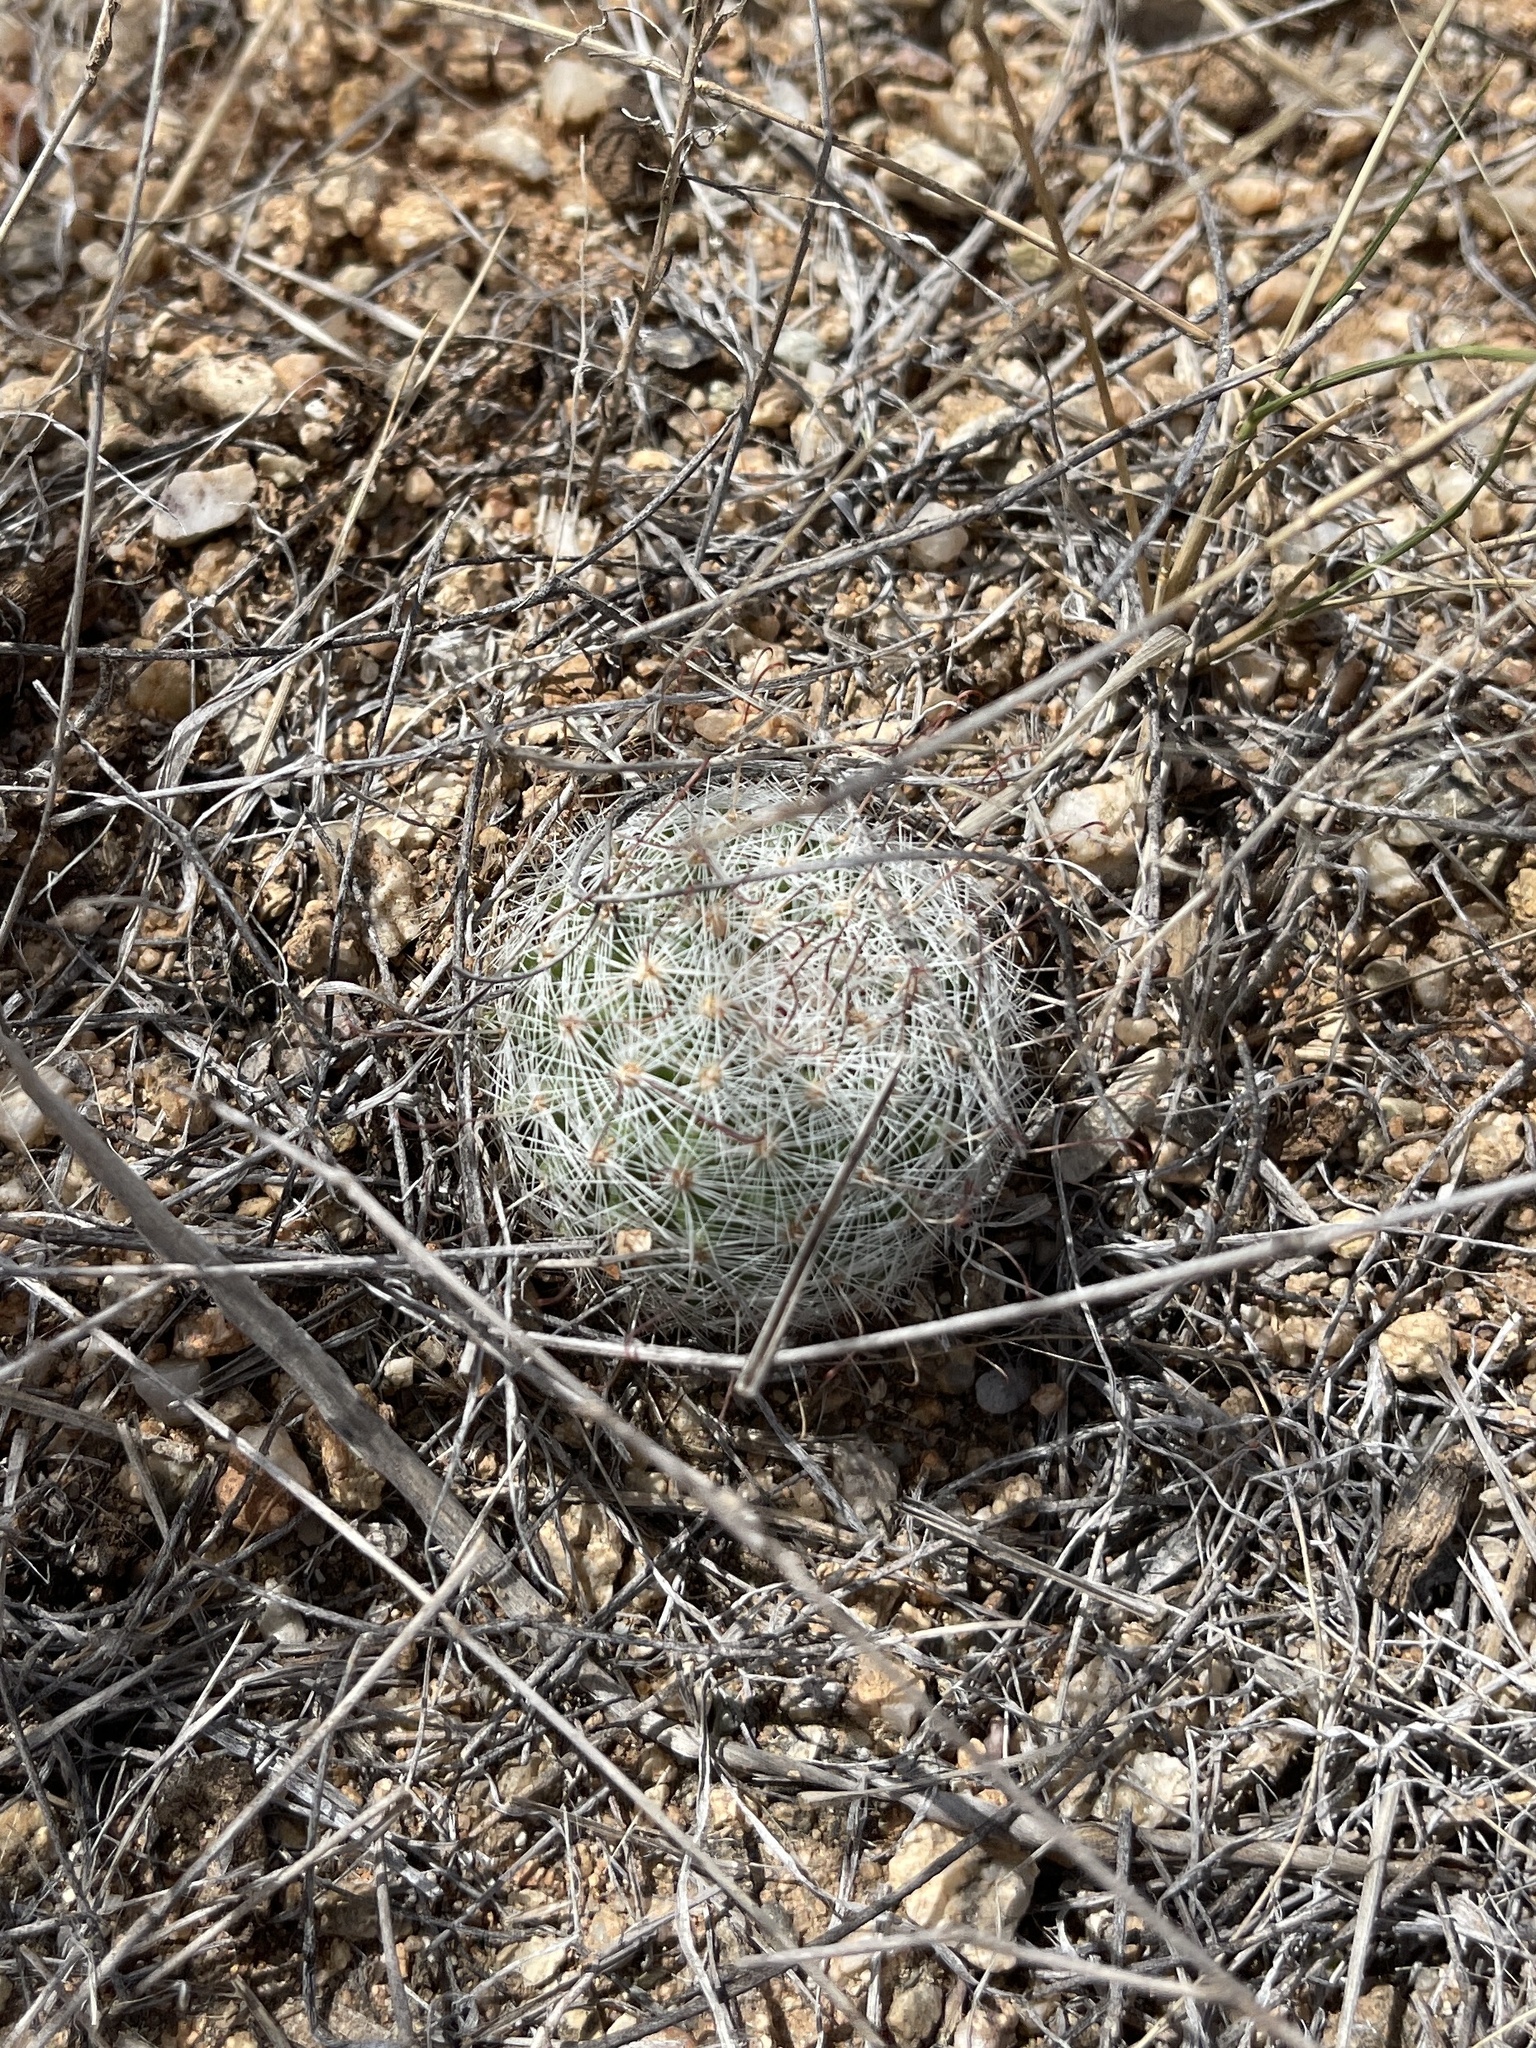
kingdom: Plantae
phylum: Tracheophyta
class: Magnoliopsida
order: Caryophyllales
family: Cactaceae
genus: Cochemiea
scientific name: Cochemiea grahamii
